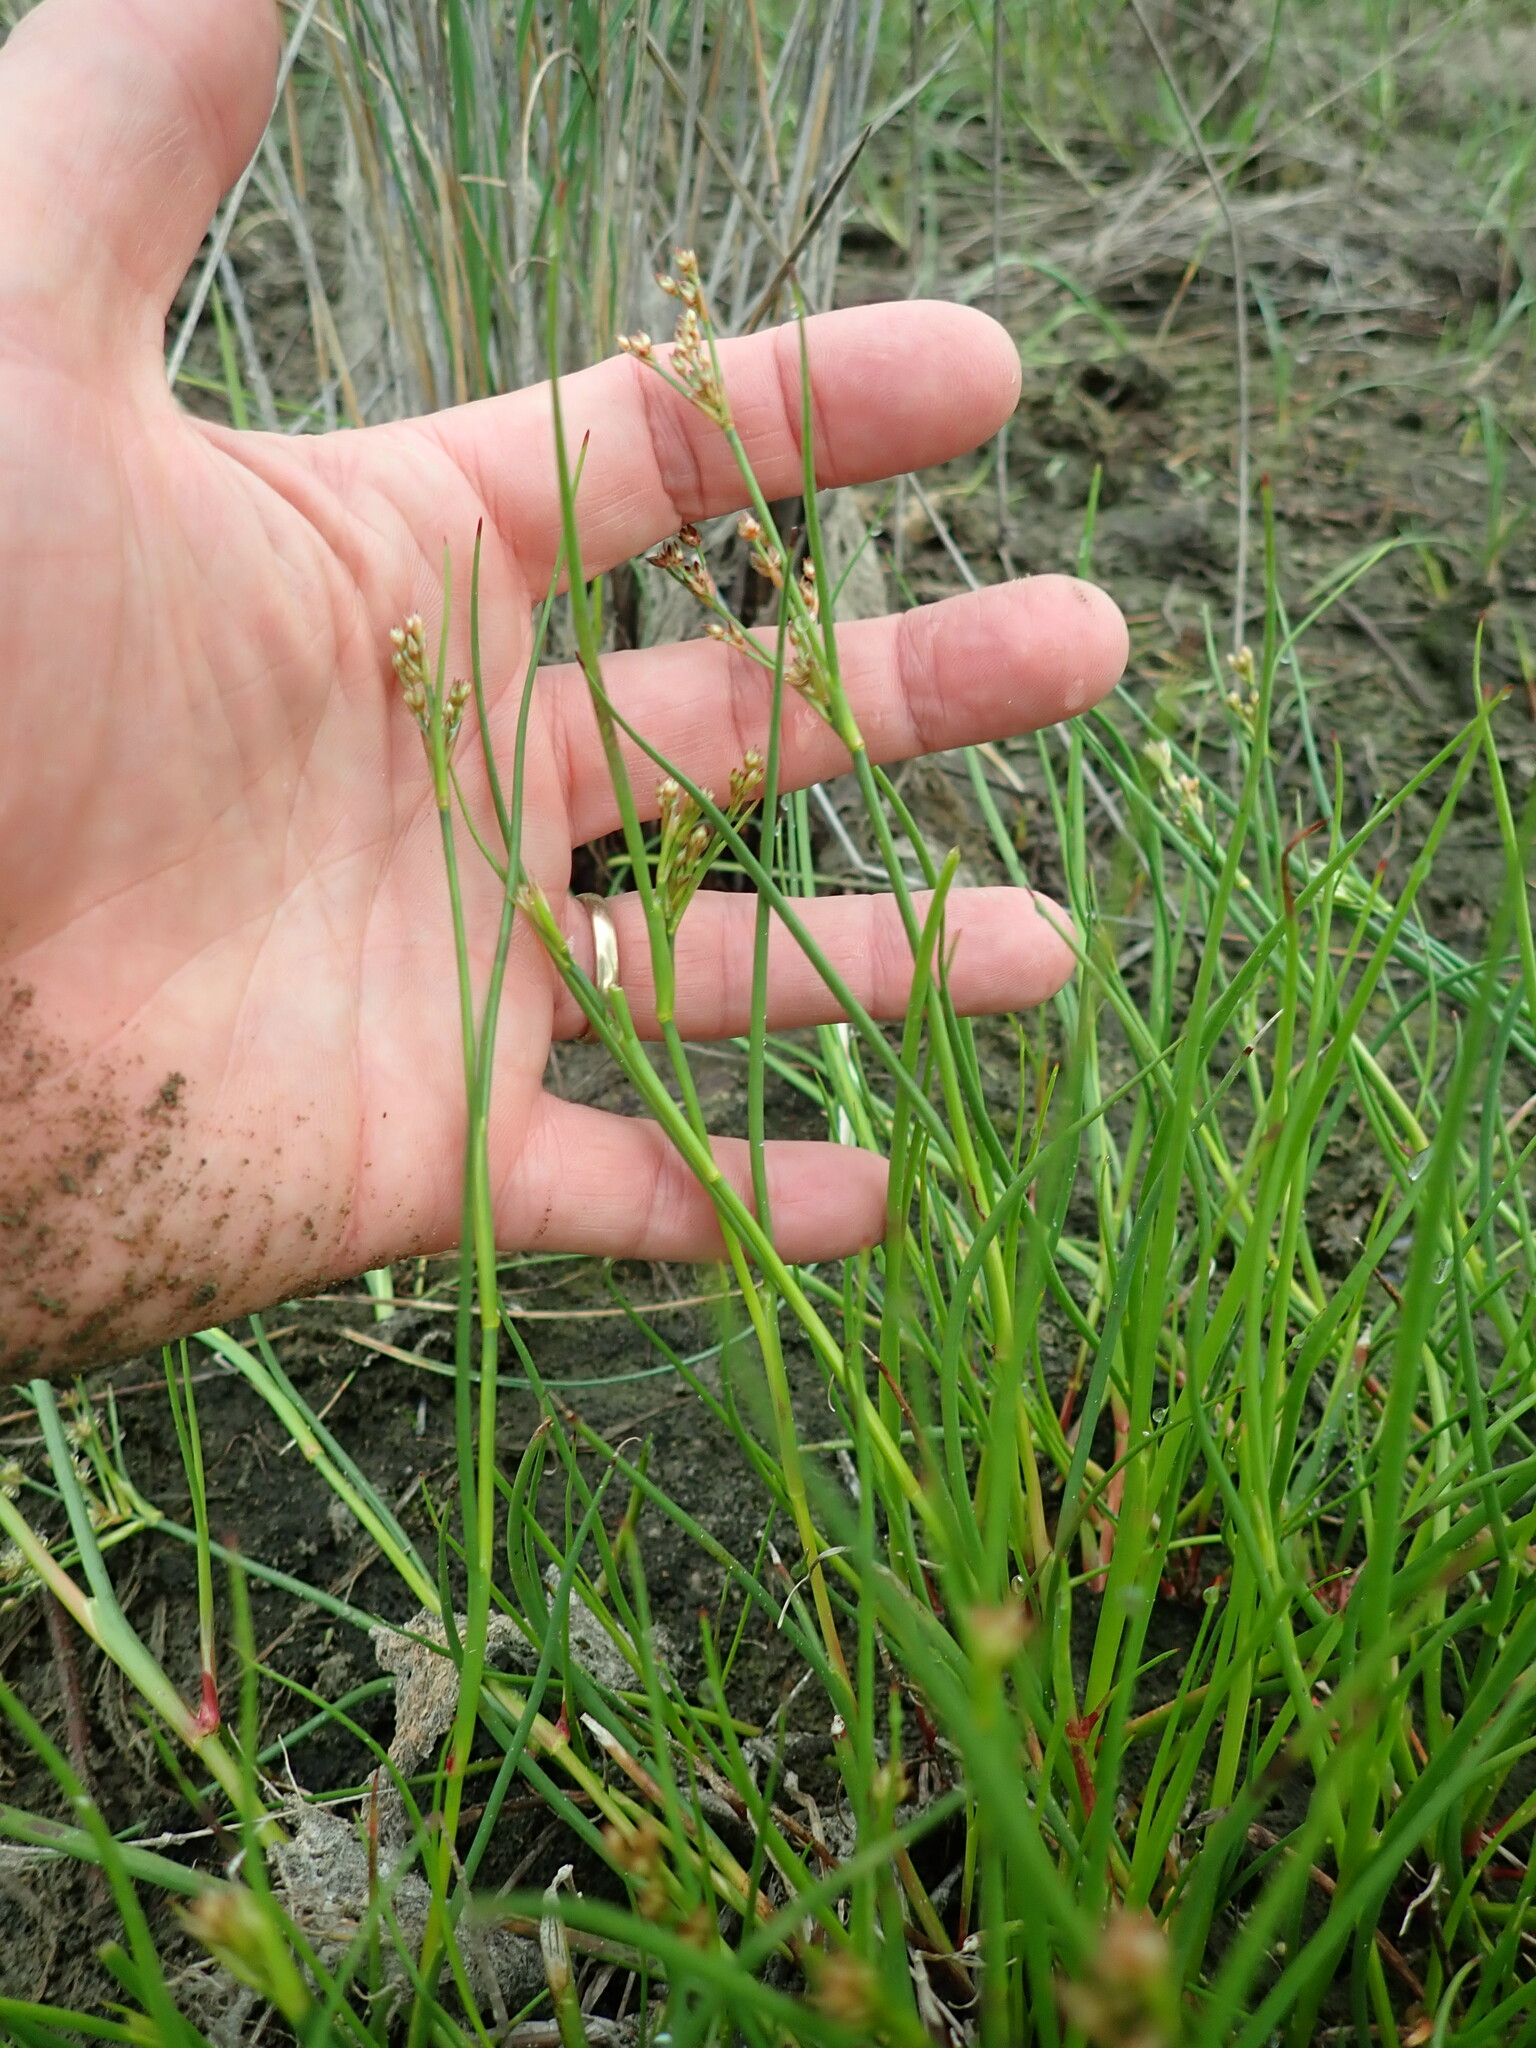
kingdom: Plantae
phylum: Tracheophyta
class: Liliopsida
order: Poales
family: Juncaceae
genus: Juncus
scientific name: Juncus articulatus
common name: Jointed rush
